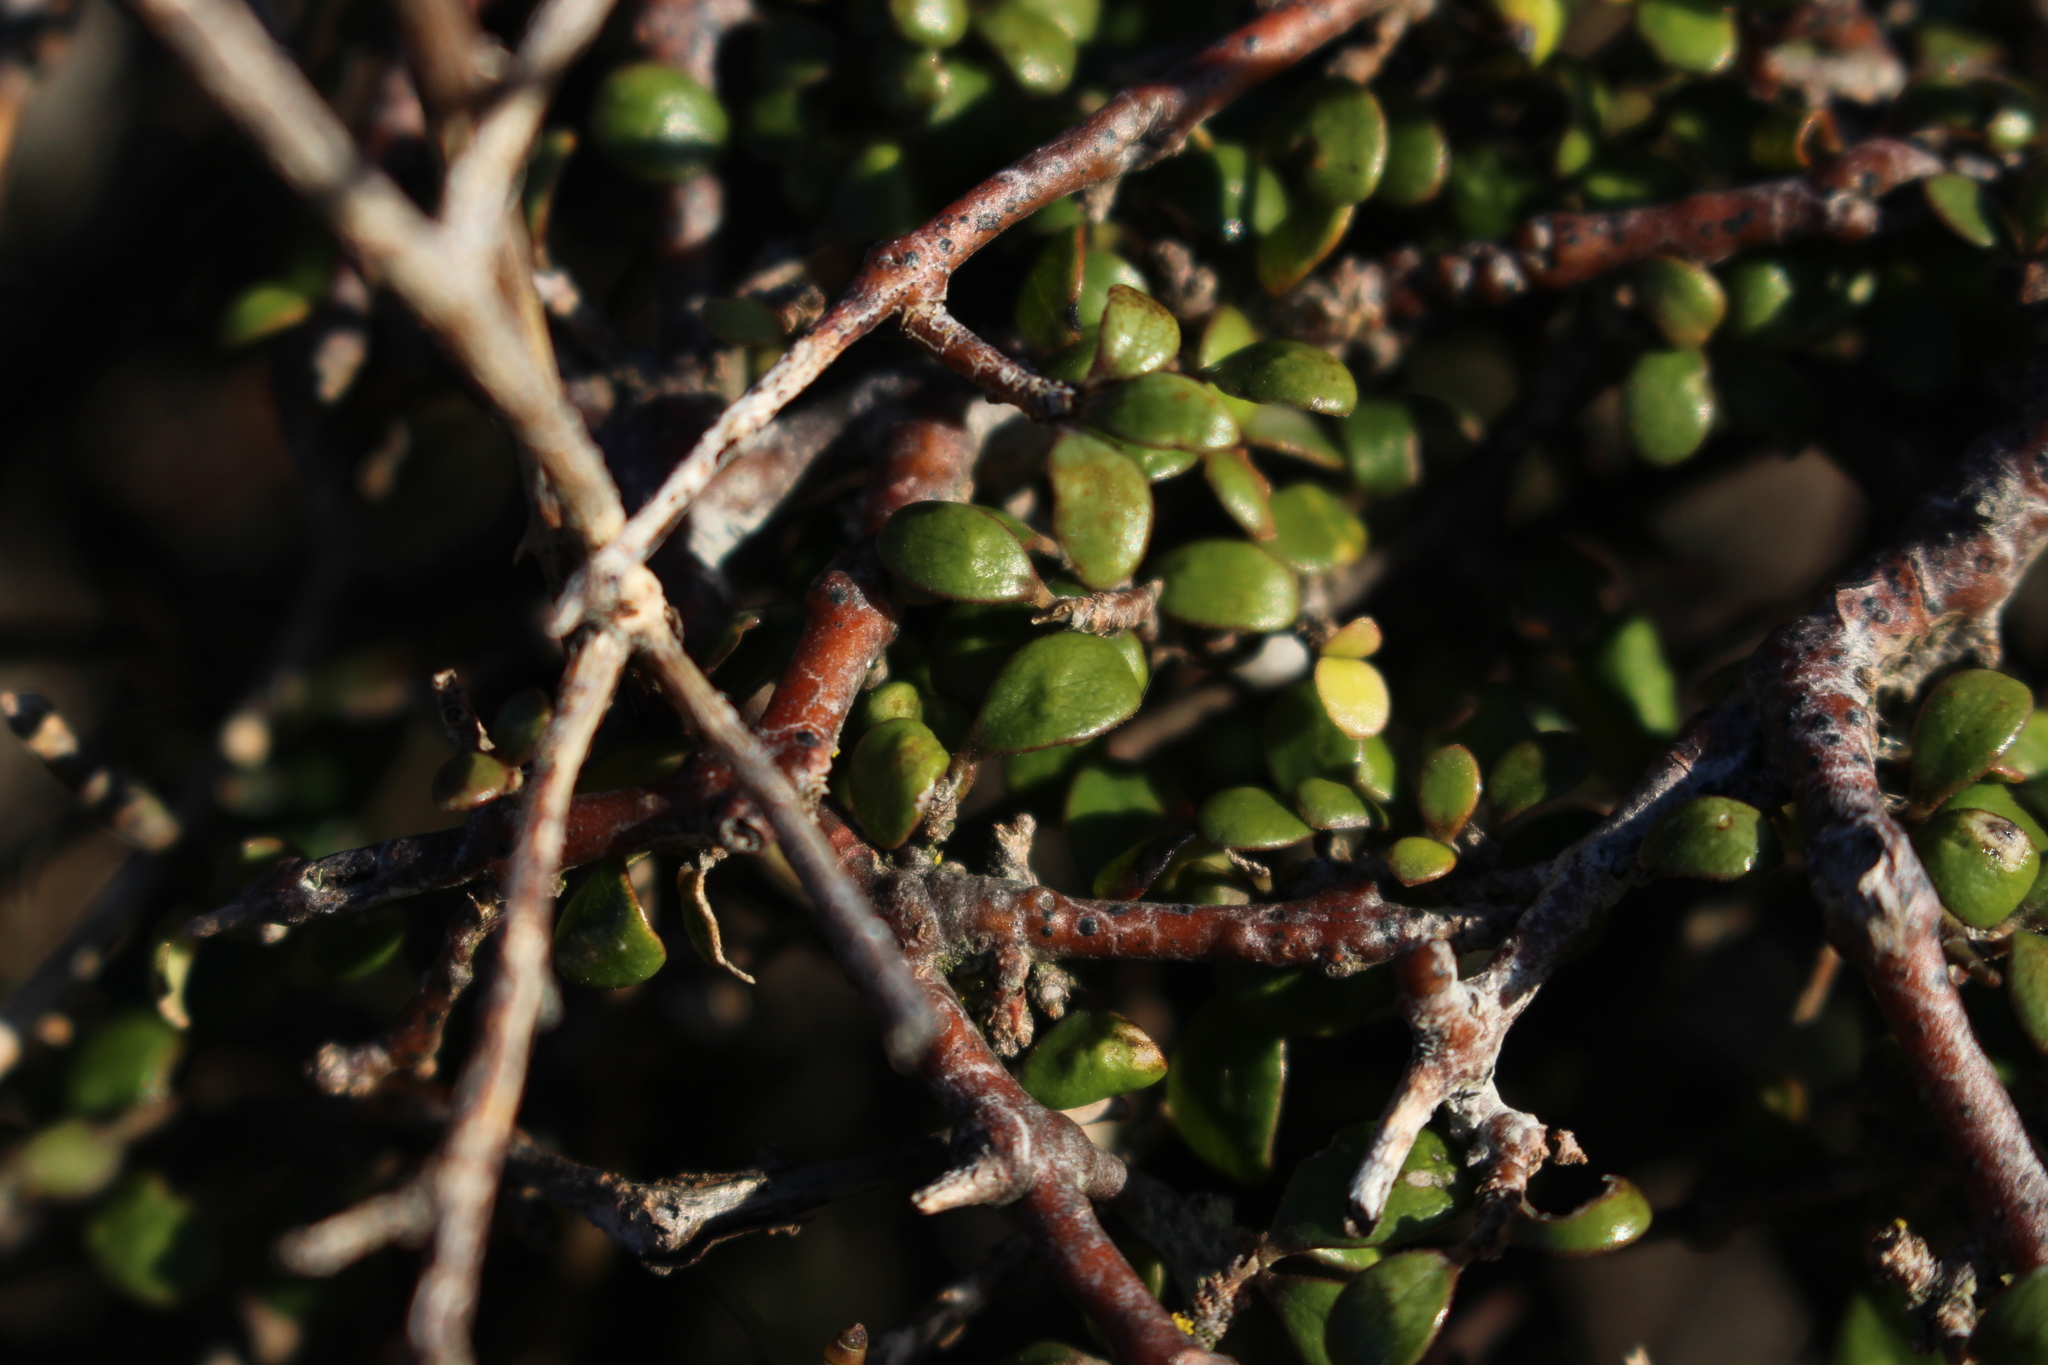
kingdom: Plantae
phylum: Tracheophyta
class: Magnoliopsida
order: Gentianales
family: Rubiaceae
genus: Coprosma
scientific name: Coprosma crassifolia
